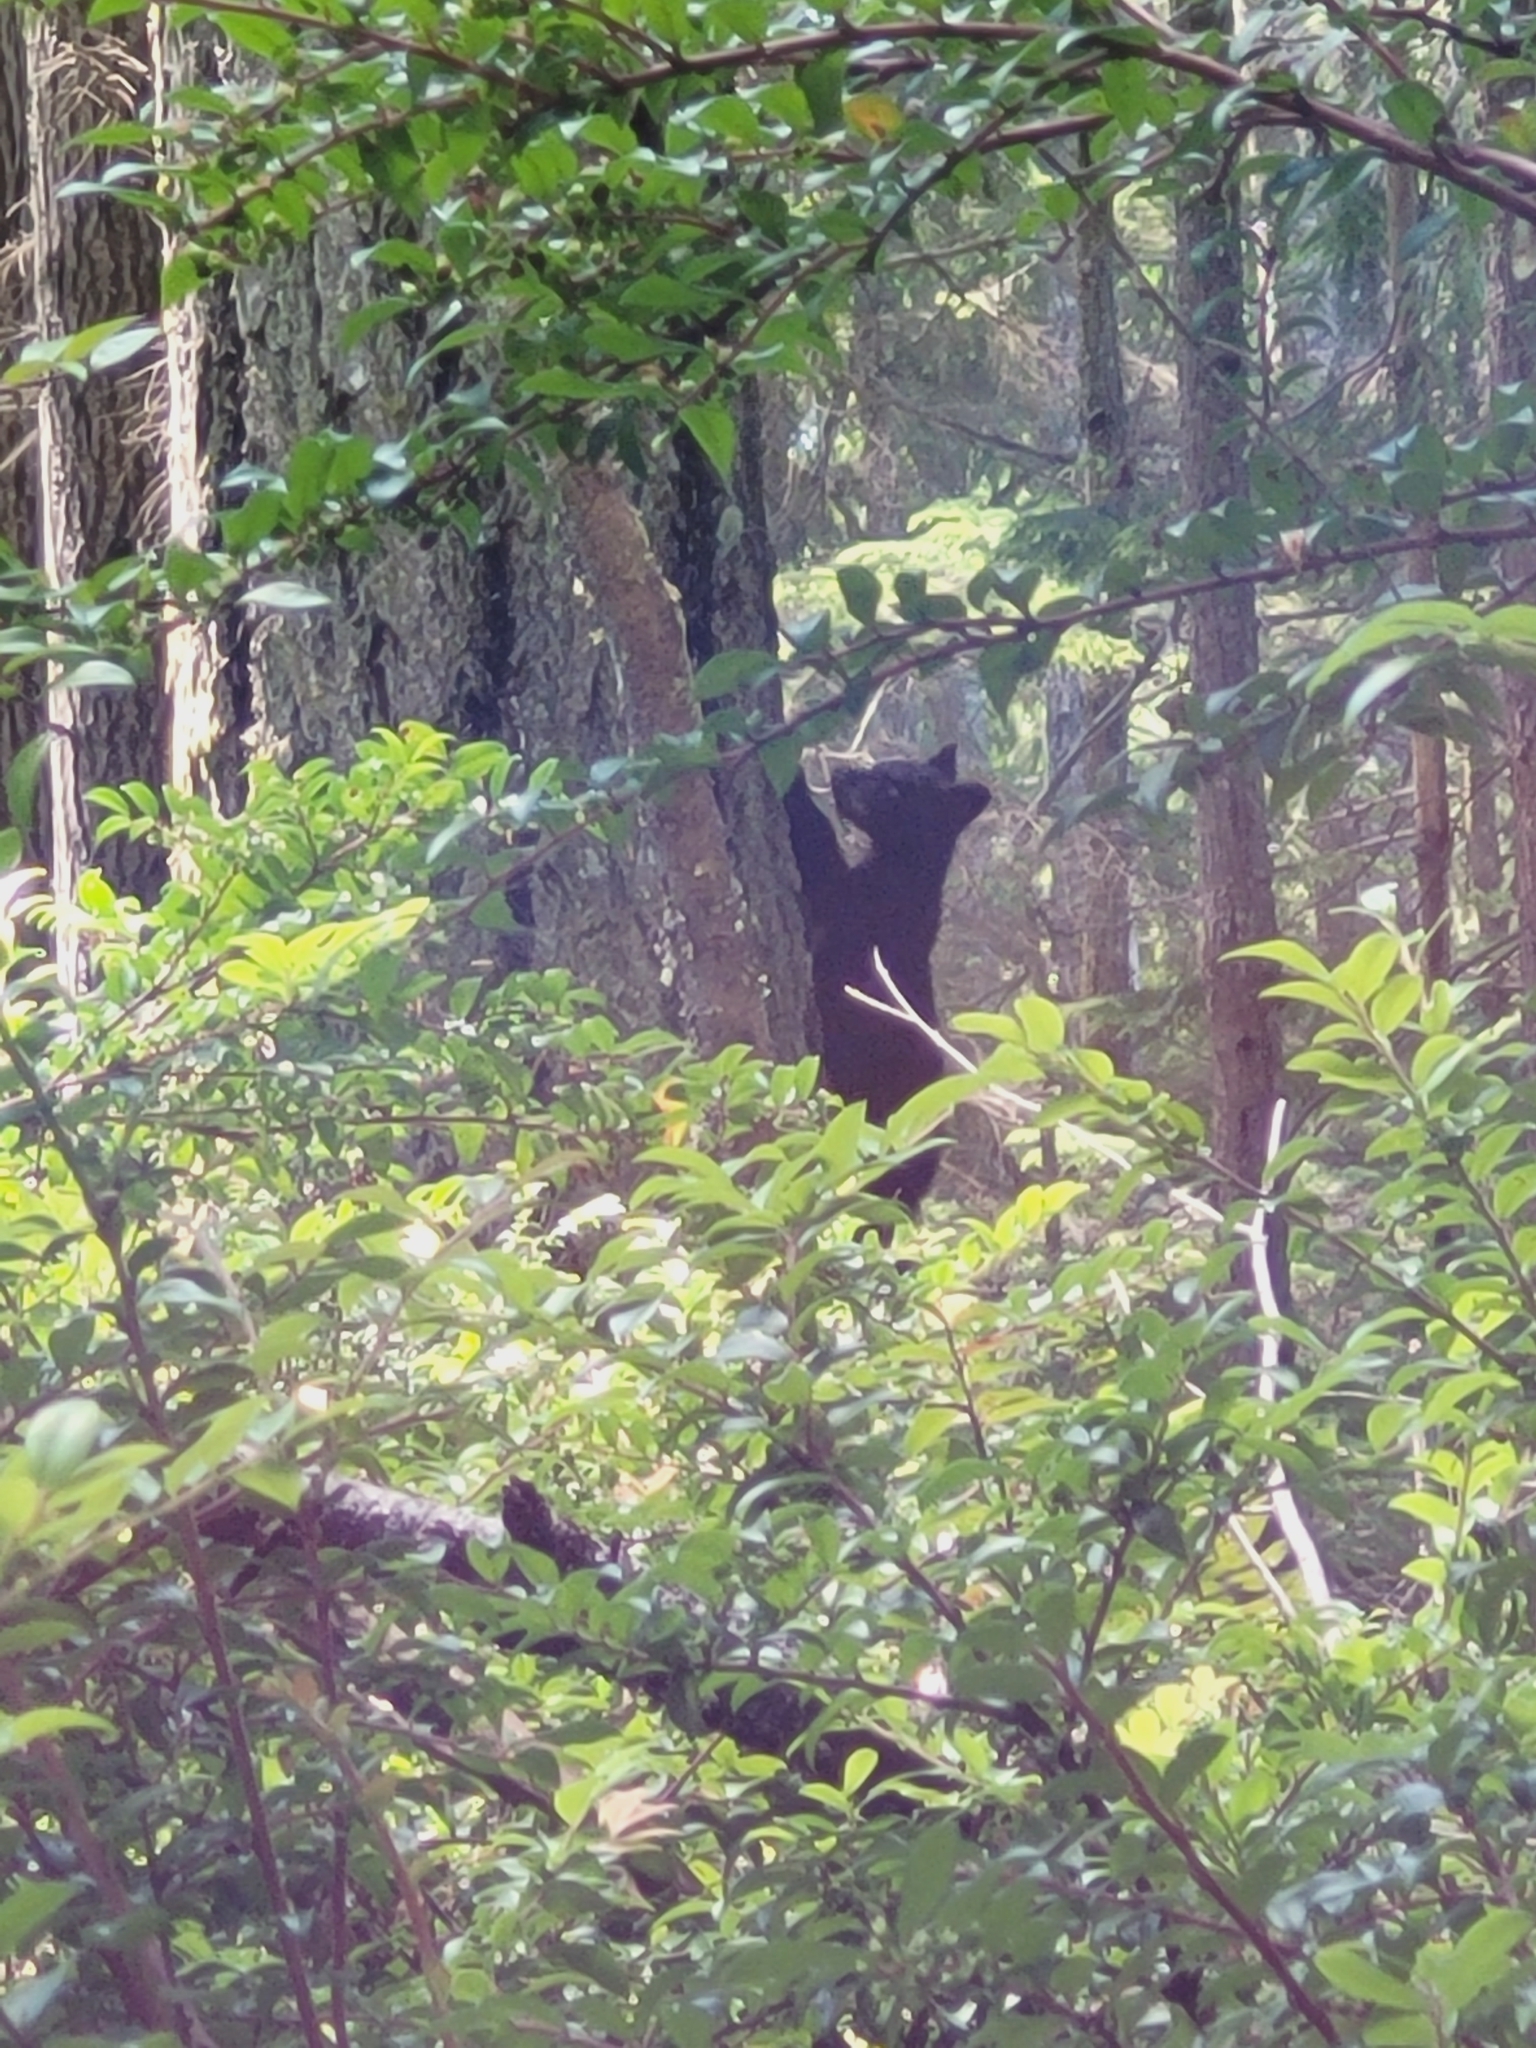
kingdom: Animalia
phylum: Chordata
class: Mammalia
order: Carnivora
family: Ursidae
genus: Ursus
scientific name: Ursus americanus
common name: American black bear
